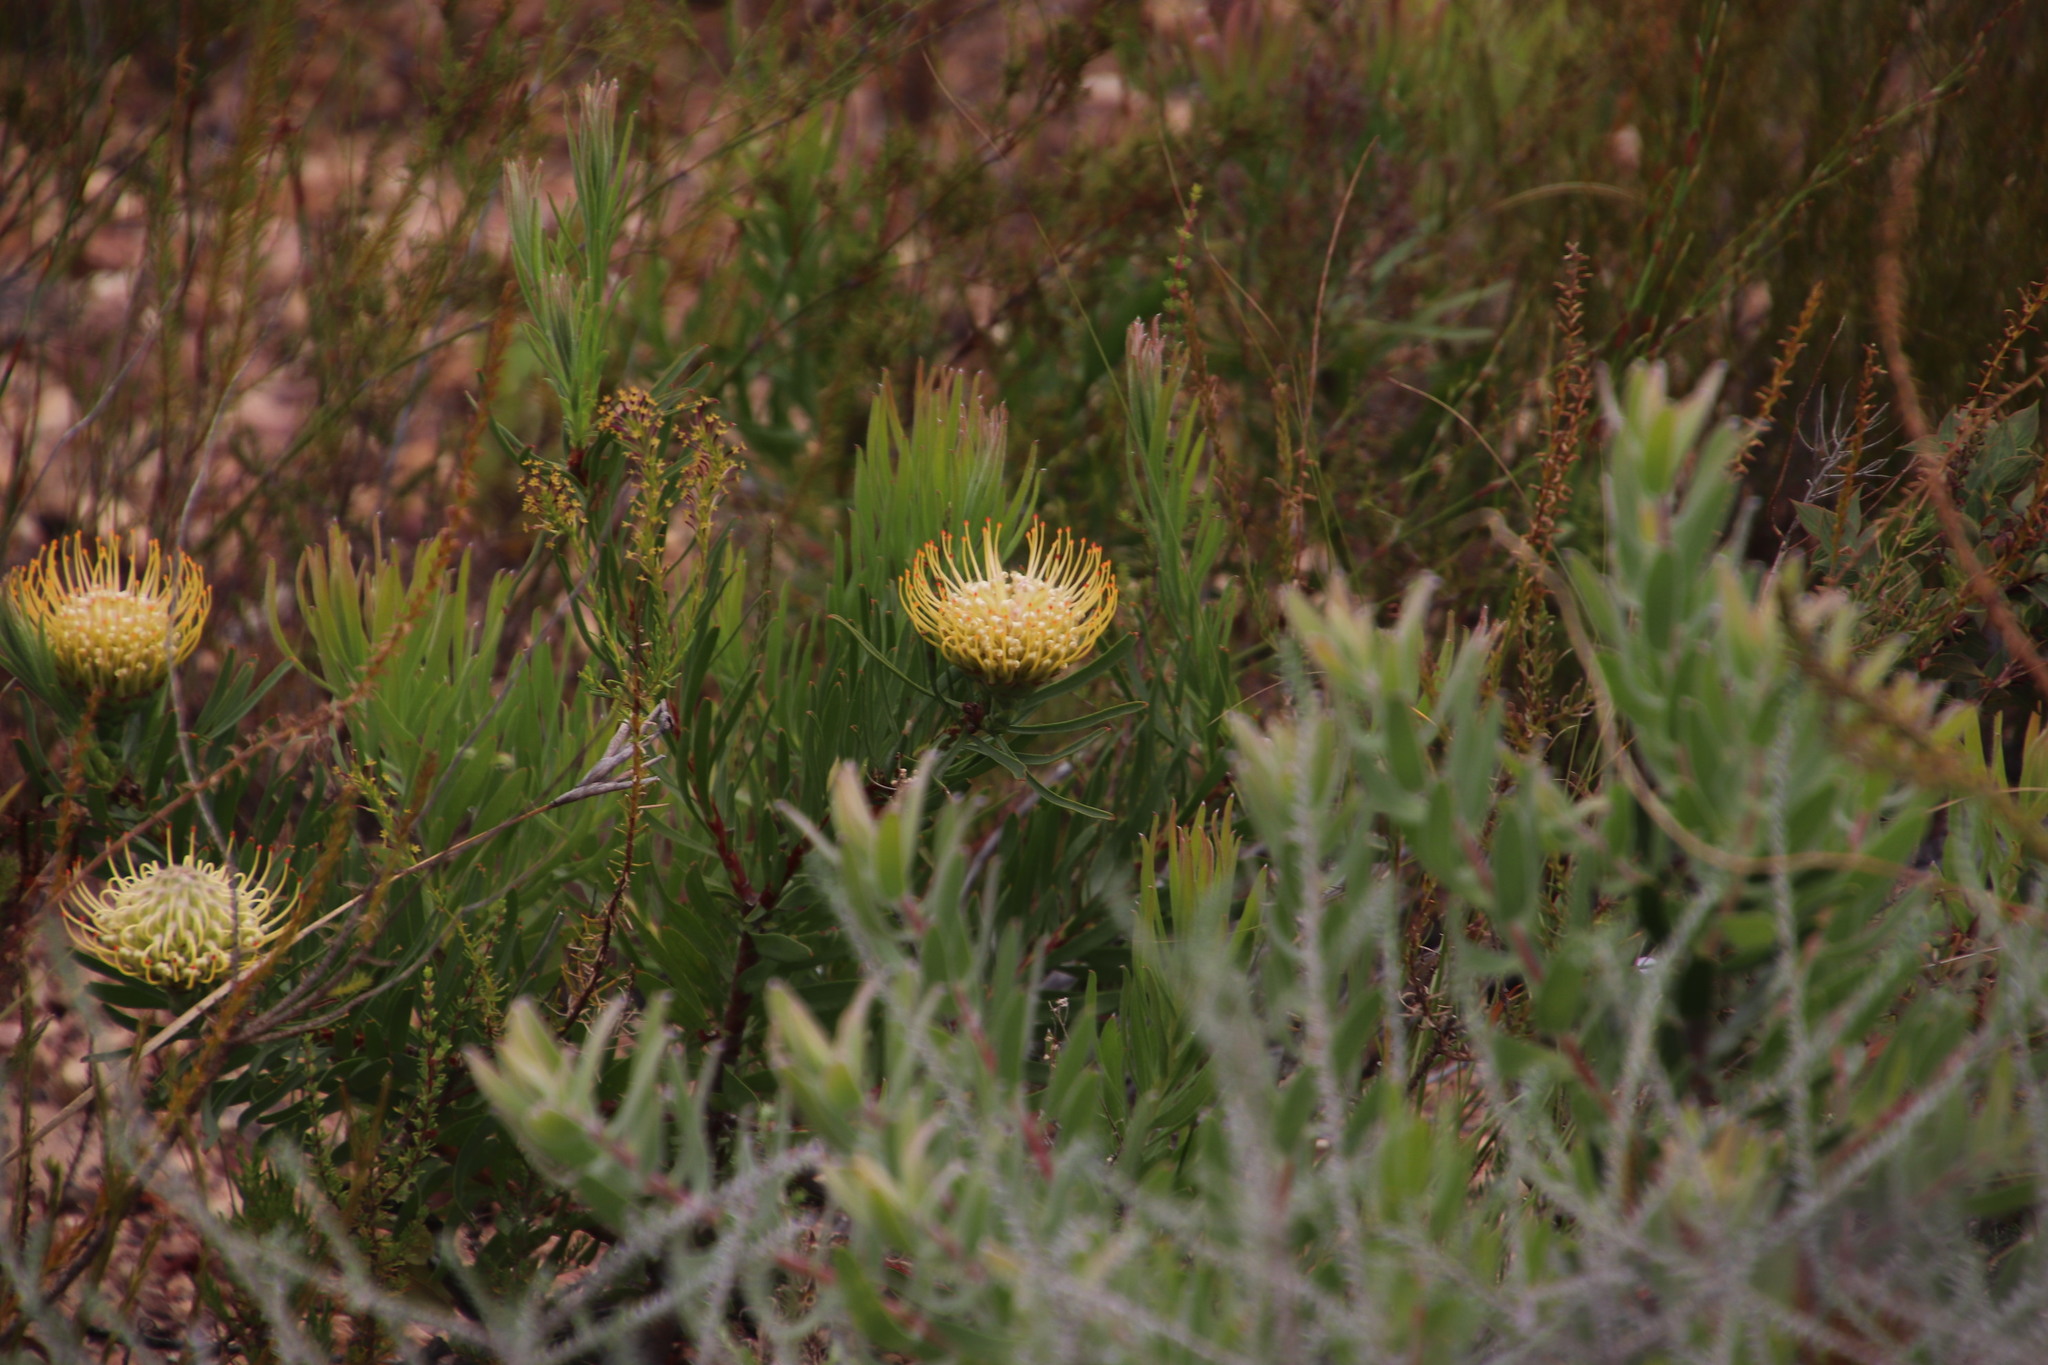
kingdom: Plantae
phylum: Tracheophyta
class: Magnoliopsida
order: Proteales
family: Proteaceae
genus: Leucospermum
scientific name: Leucospermum lineare
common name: Needle-leaf pincushion
